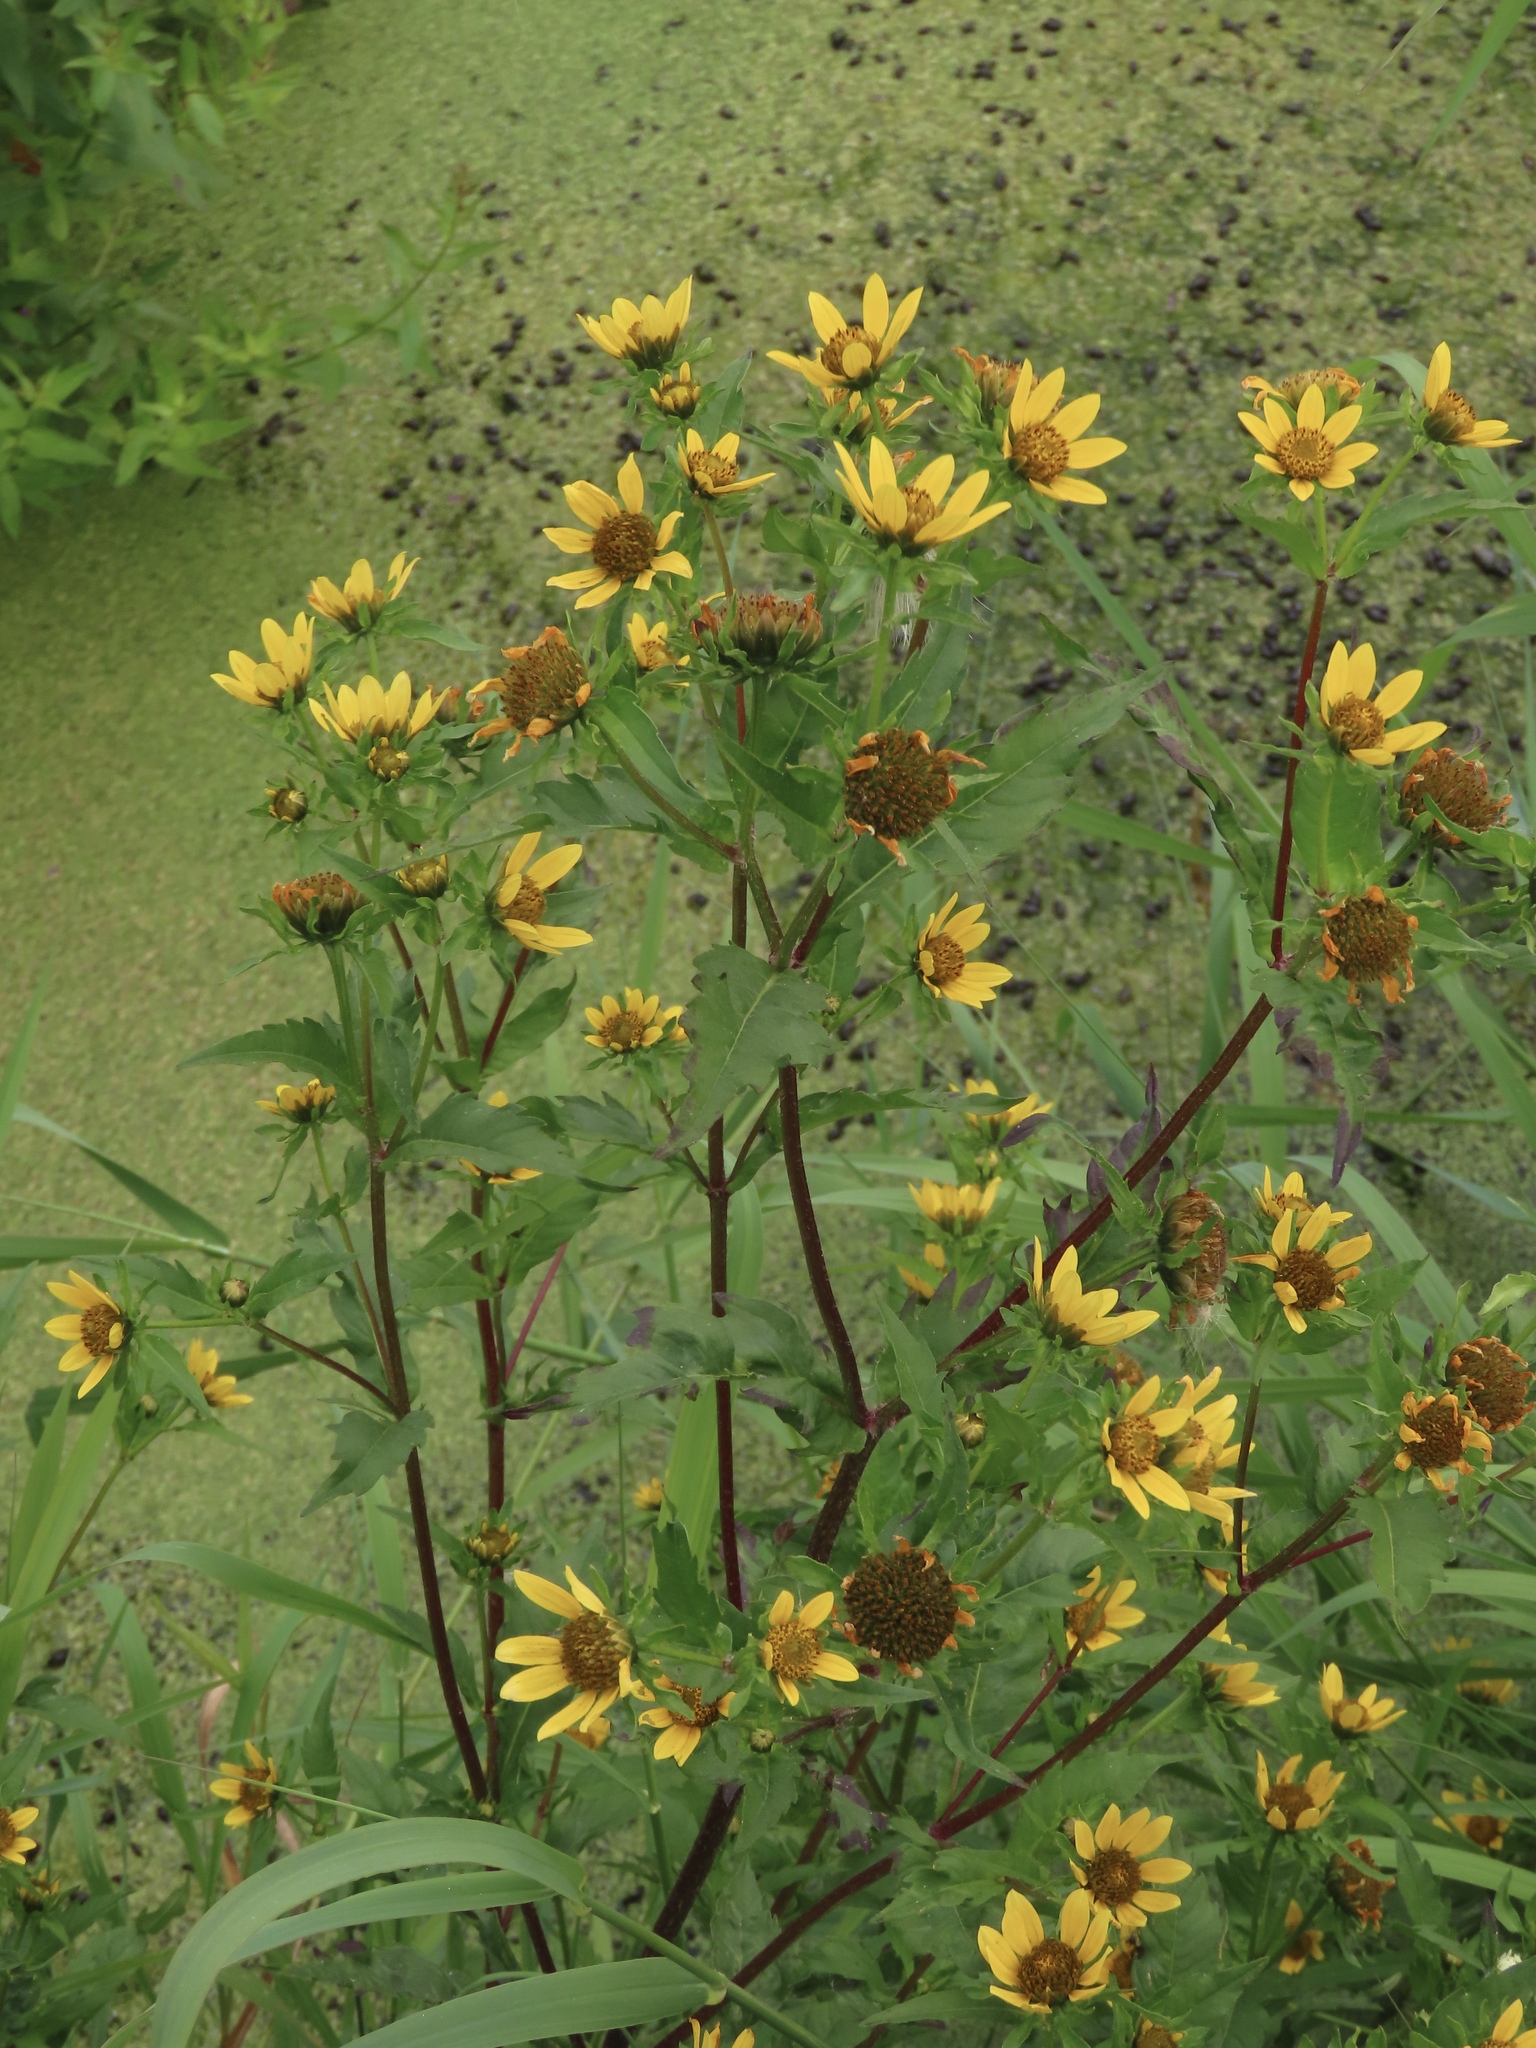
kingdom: Plantae
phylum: Tracheophyta
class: Magnoliopsida
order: Asterales
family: Asteraceae
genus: Bidens
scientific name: Bidens amplissima
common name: Vancouver island beggarticks
